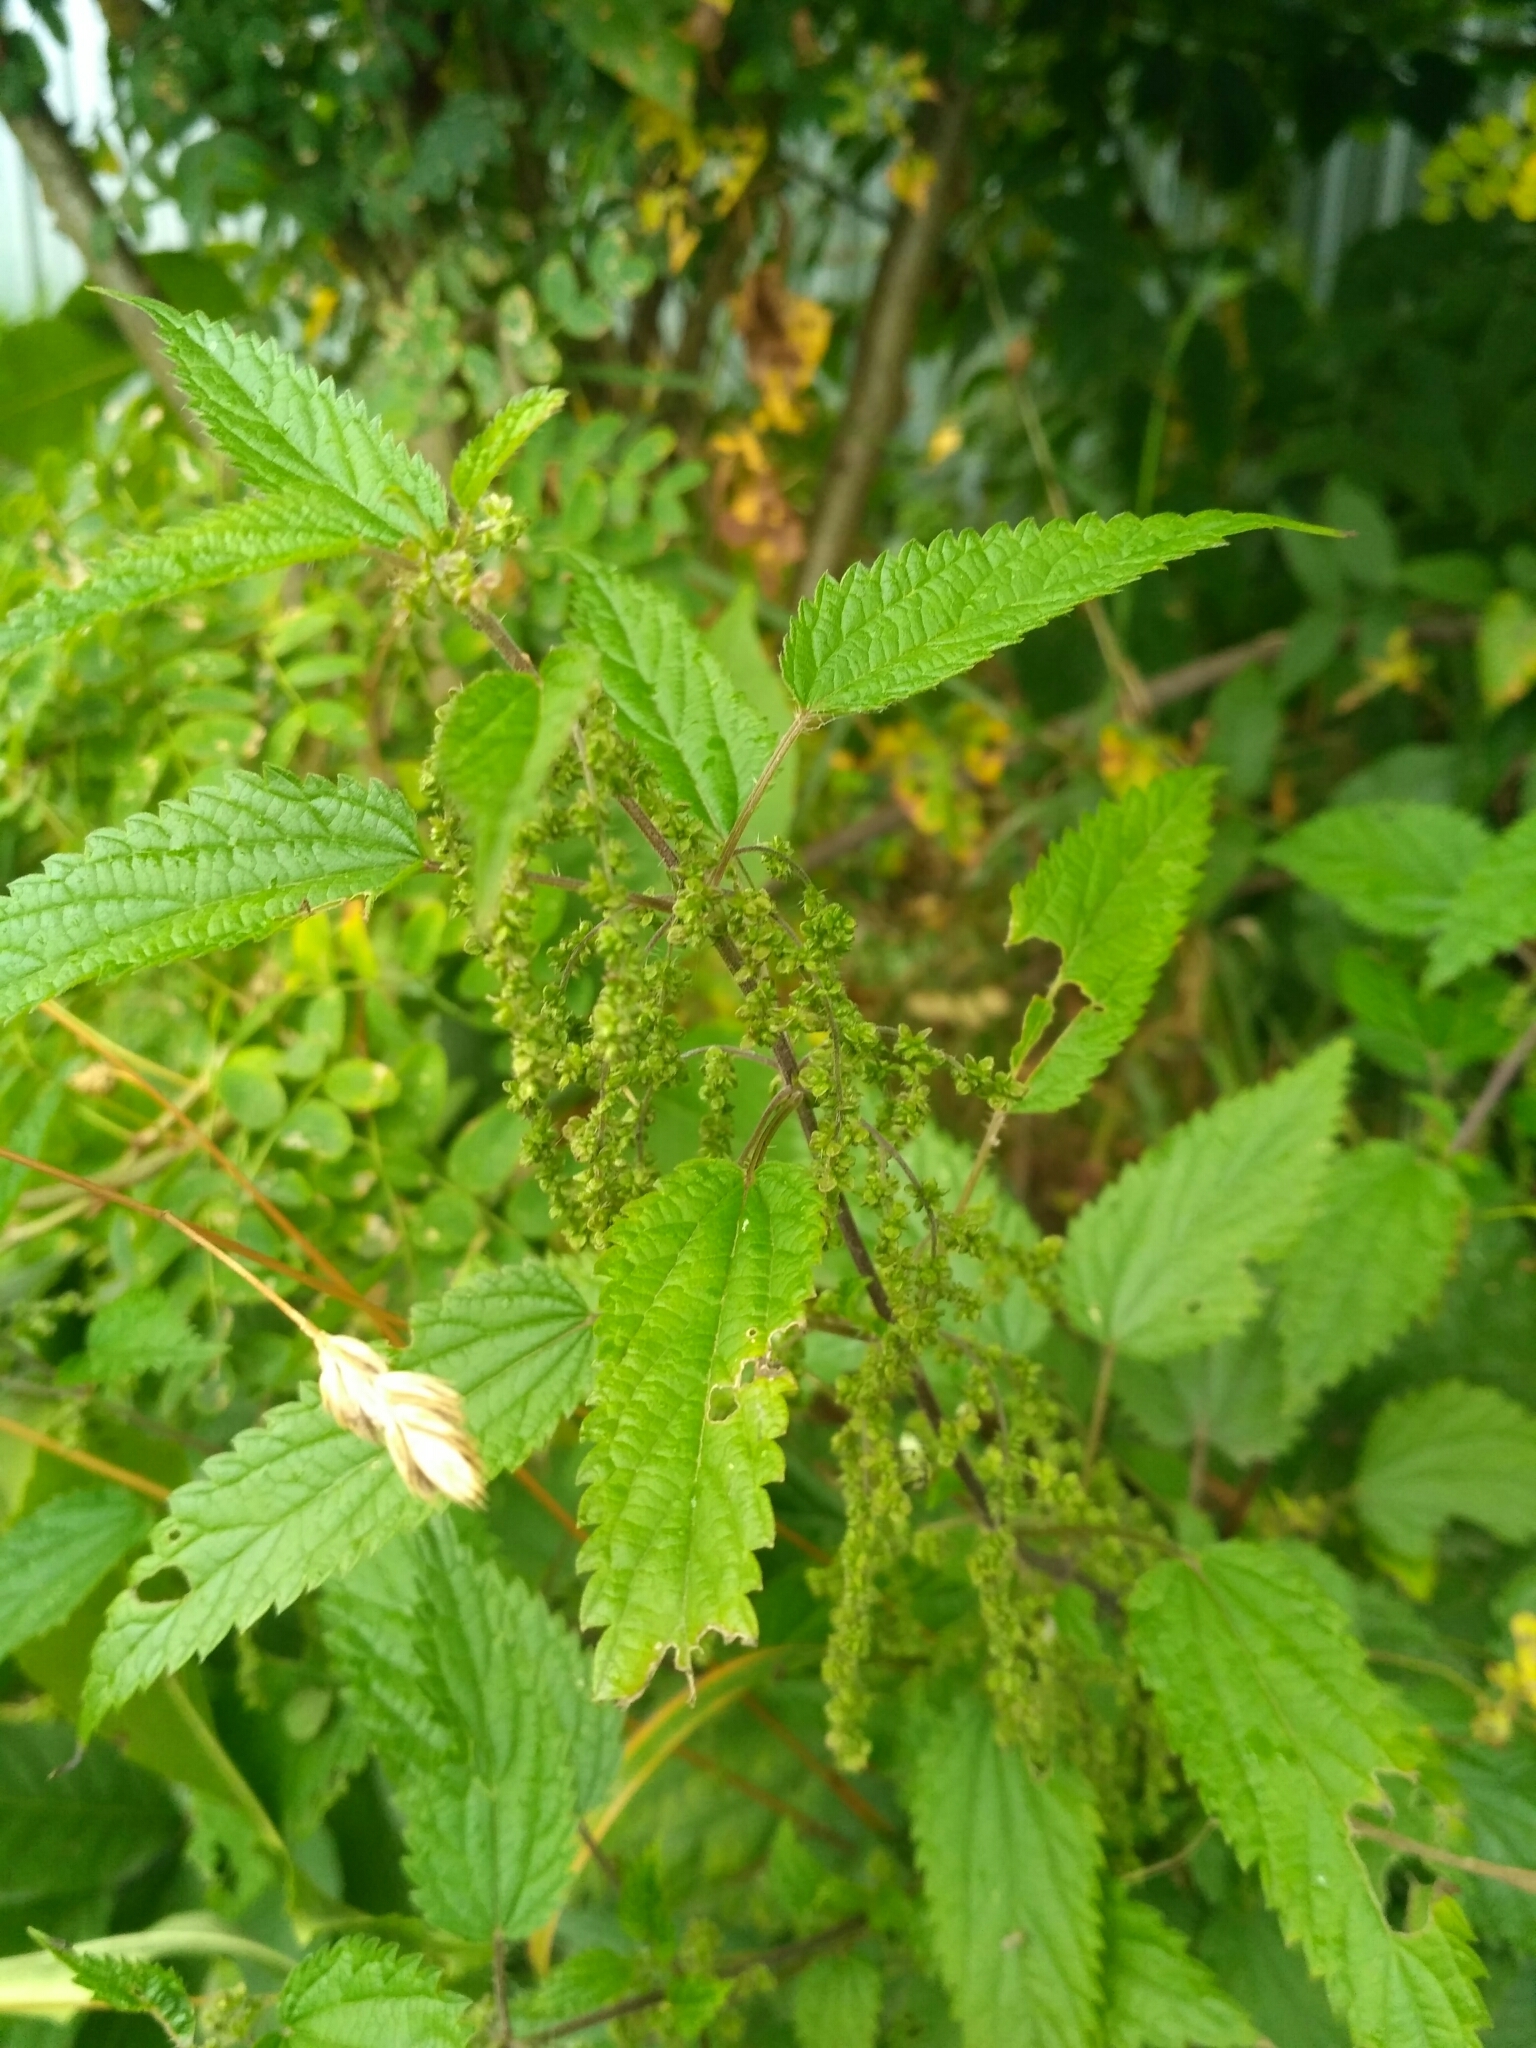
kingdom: Plantae
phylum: Tracheophyta
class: Magnoliopsida
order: Rosales
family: Urticaceae
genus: Urtica
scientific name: Urtica dioica
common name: Common nettle
